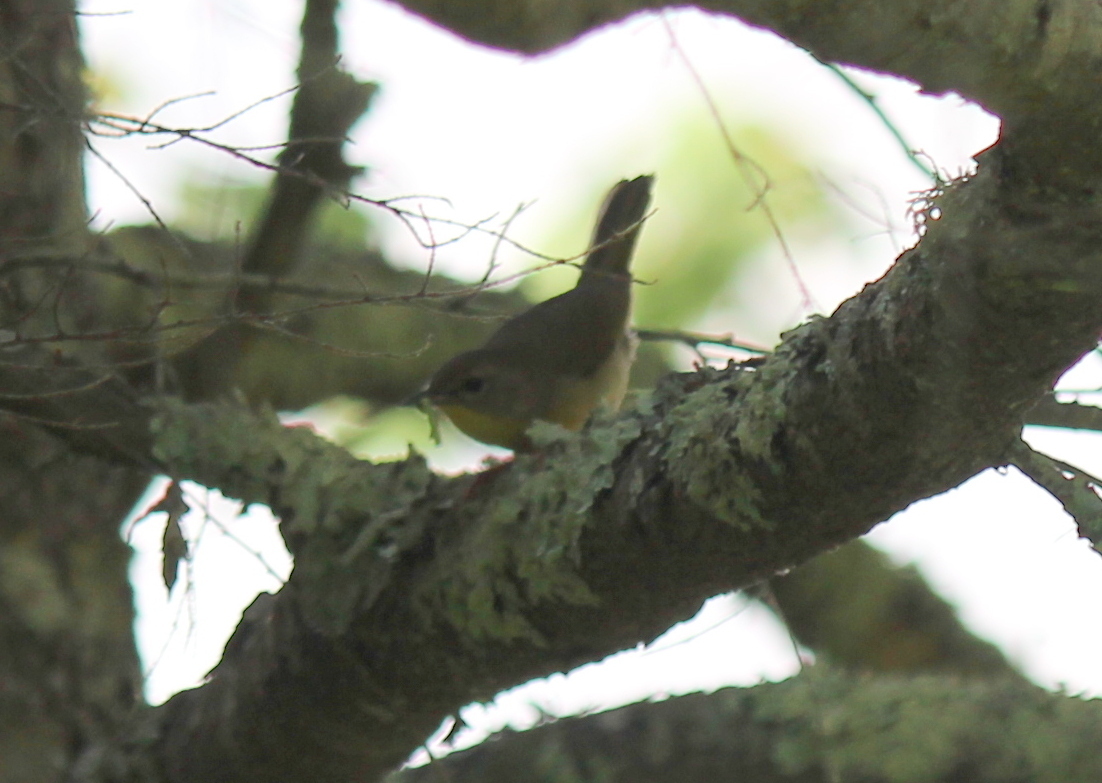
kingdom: Animalia
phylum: Chordata
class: Aves
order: Passeriformes
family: Parulidae
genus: Geothlypis
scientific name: Geothlypis trichas
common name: Common yellowthroat
